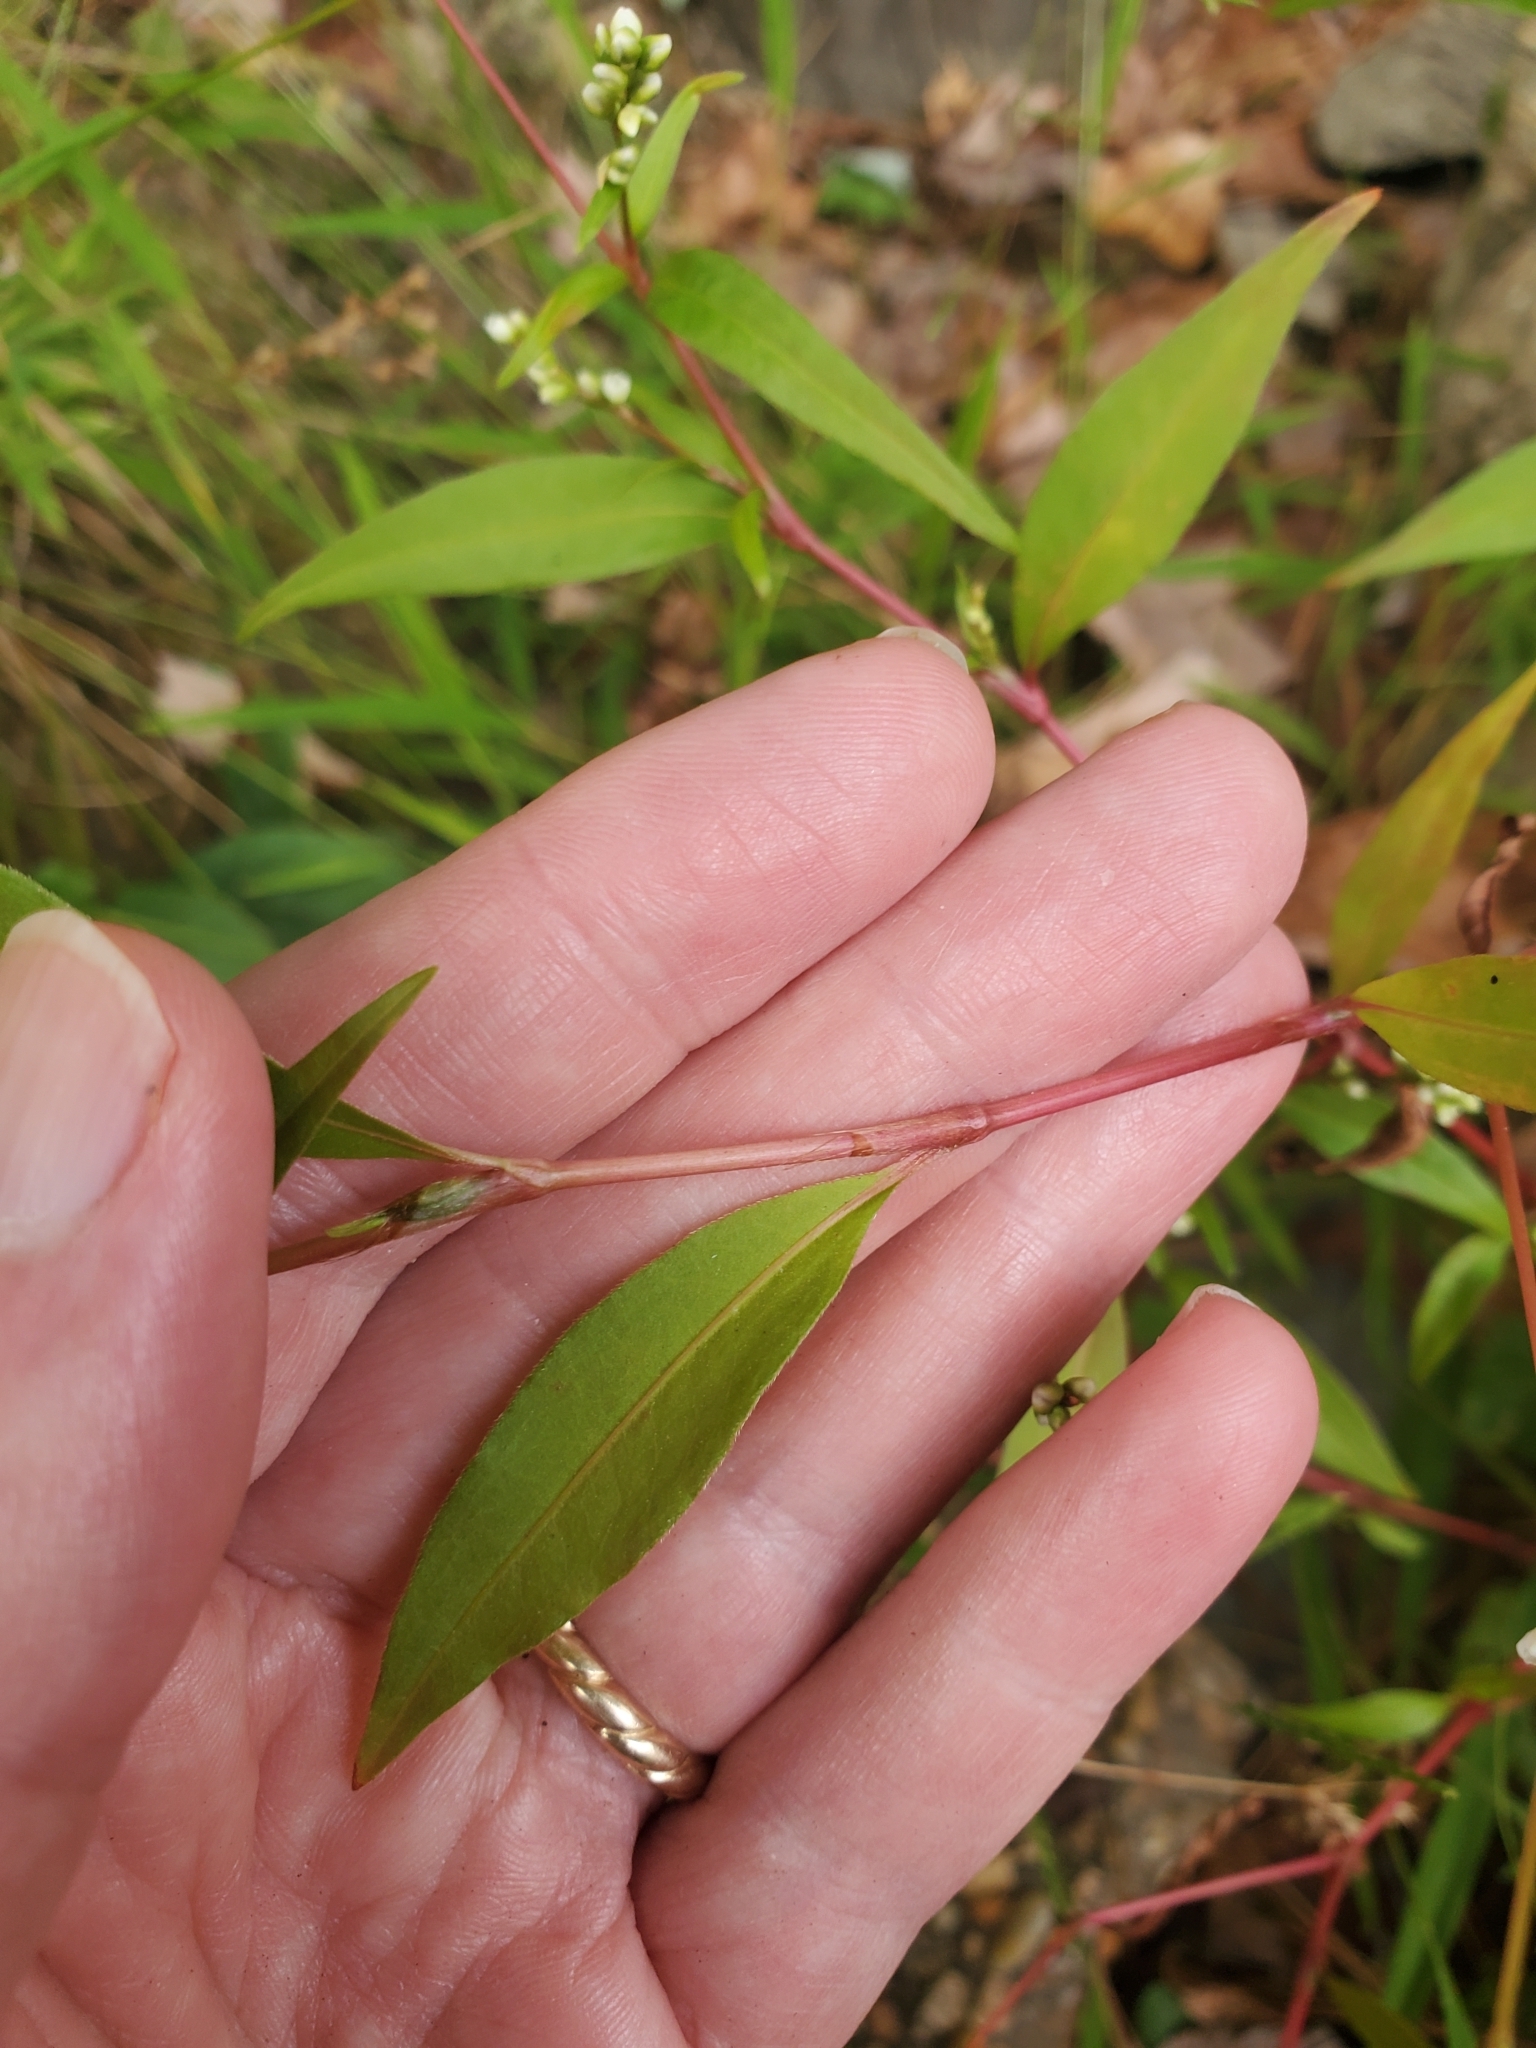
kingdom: Plantae
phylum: Tracheophyta
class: Magnoliopsida
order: Caryophyllales
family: Polygonaceae
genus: Persicaria
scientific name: Persicaria punctata
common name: Dotted smartweed
